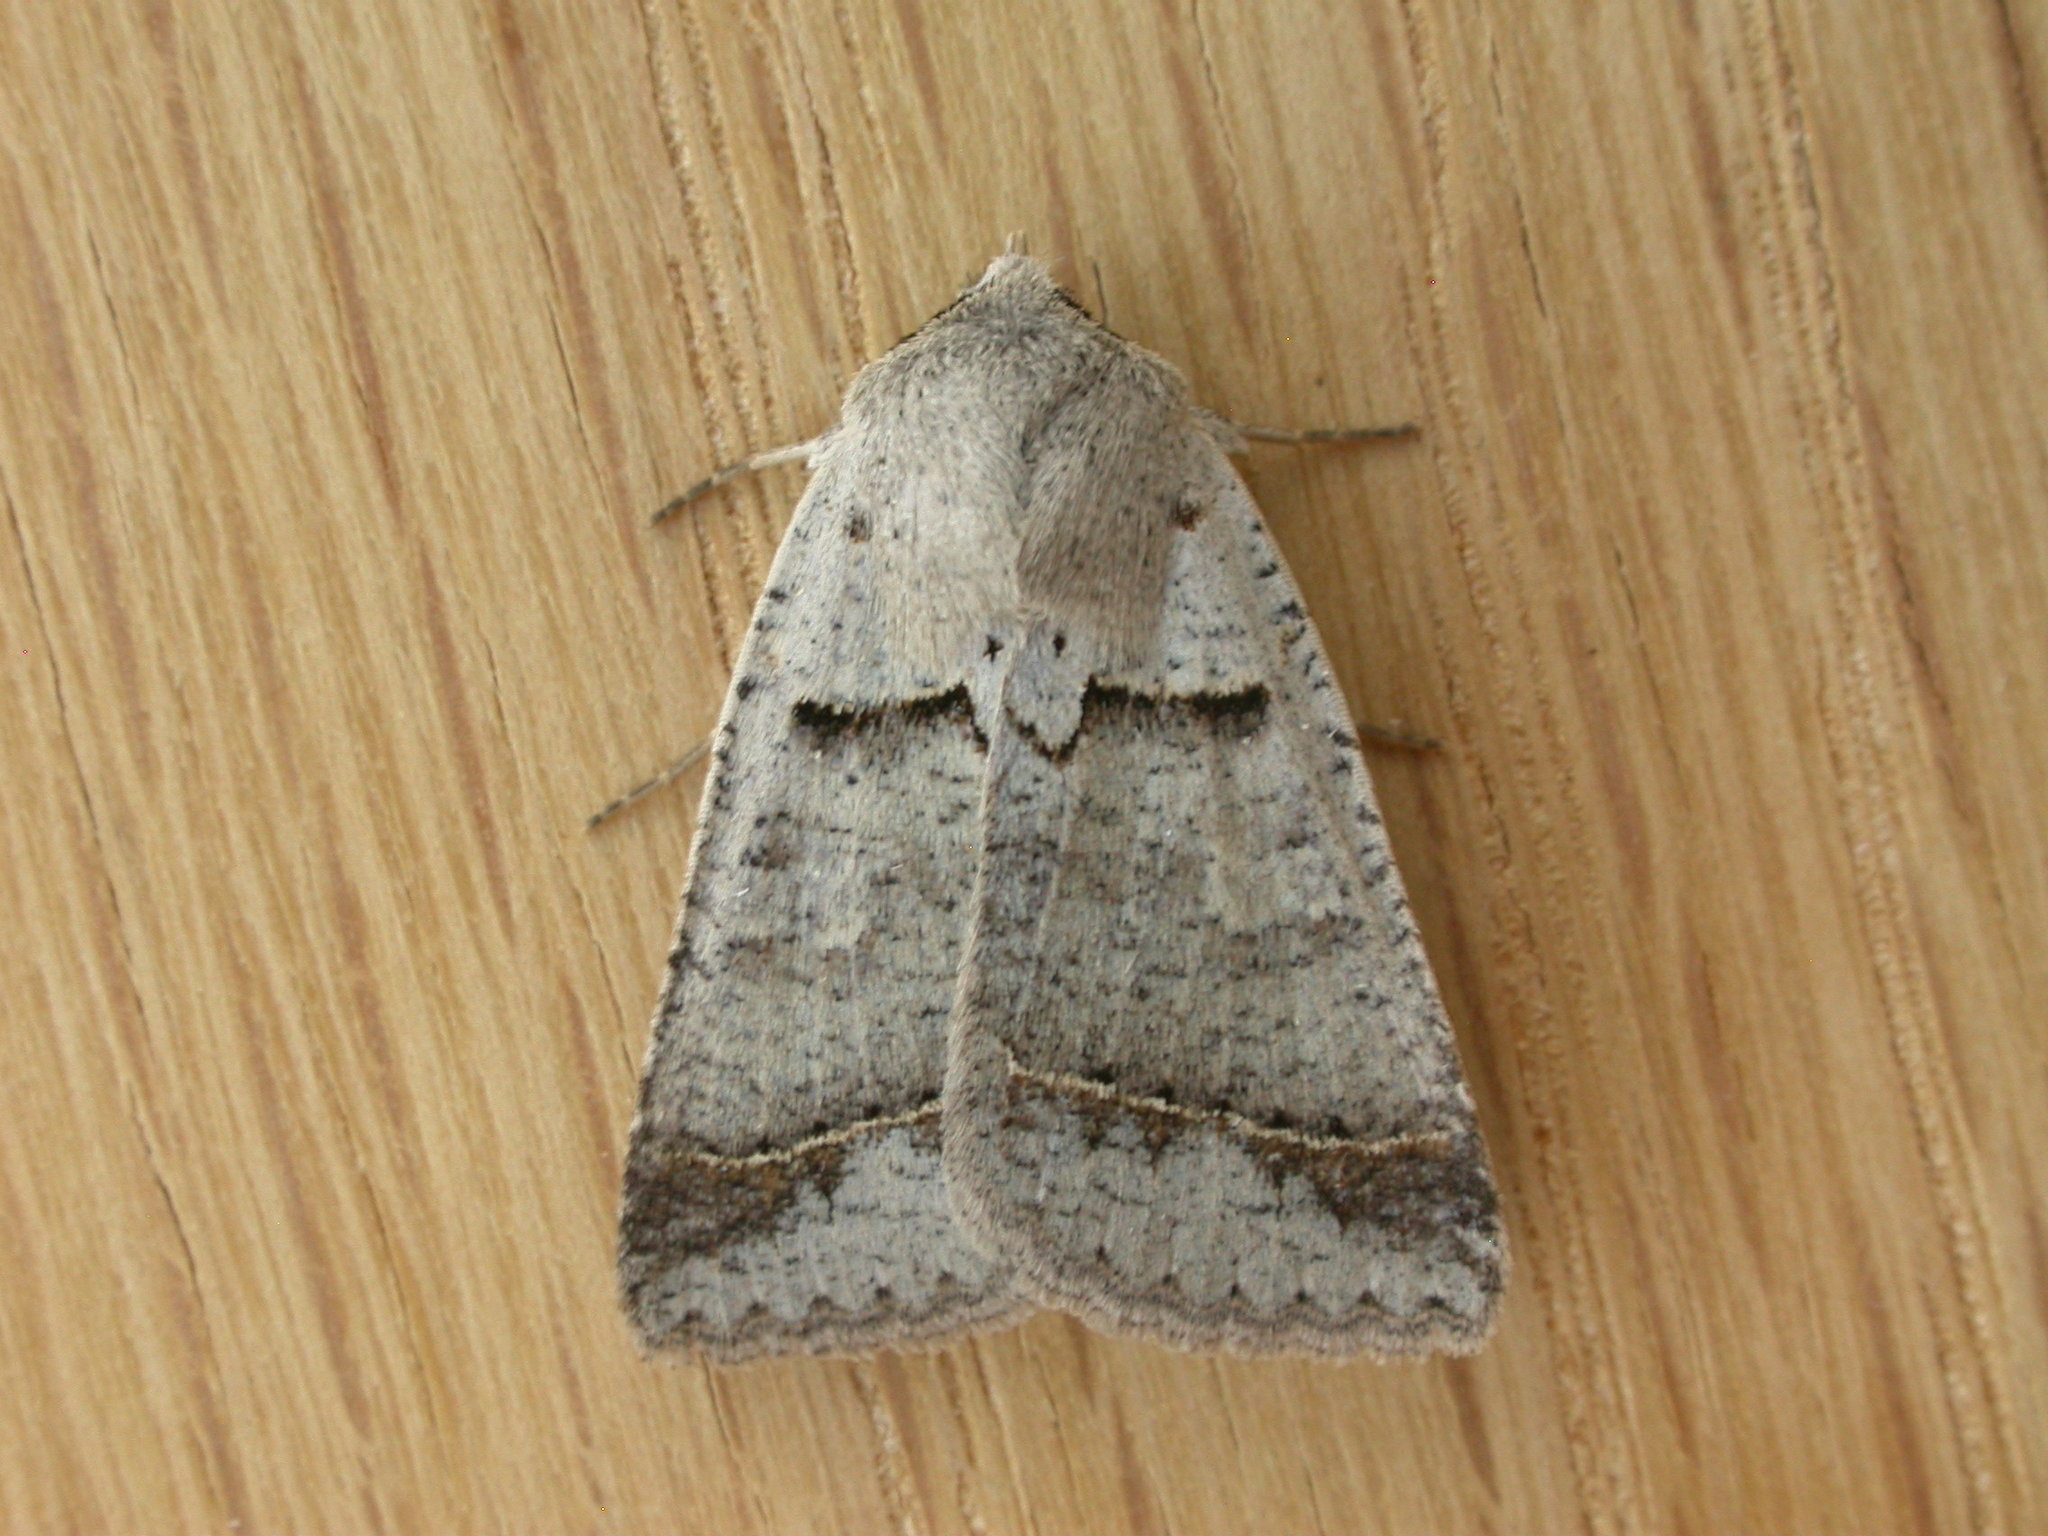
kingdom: Animalia
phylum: Arthropoda
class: Insecta
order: Lepidoptera
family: Erebidae
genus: Pantydia
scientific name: Pantydia sparsa
